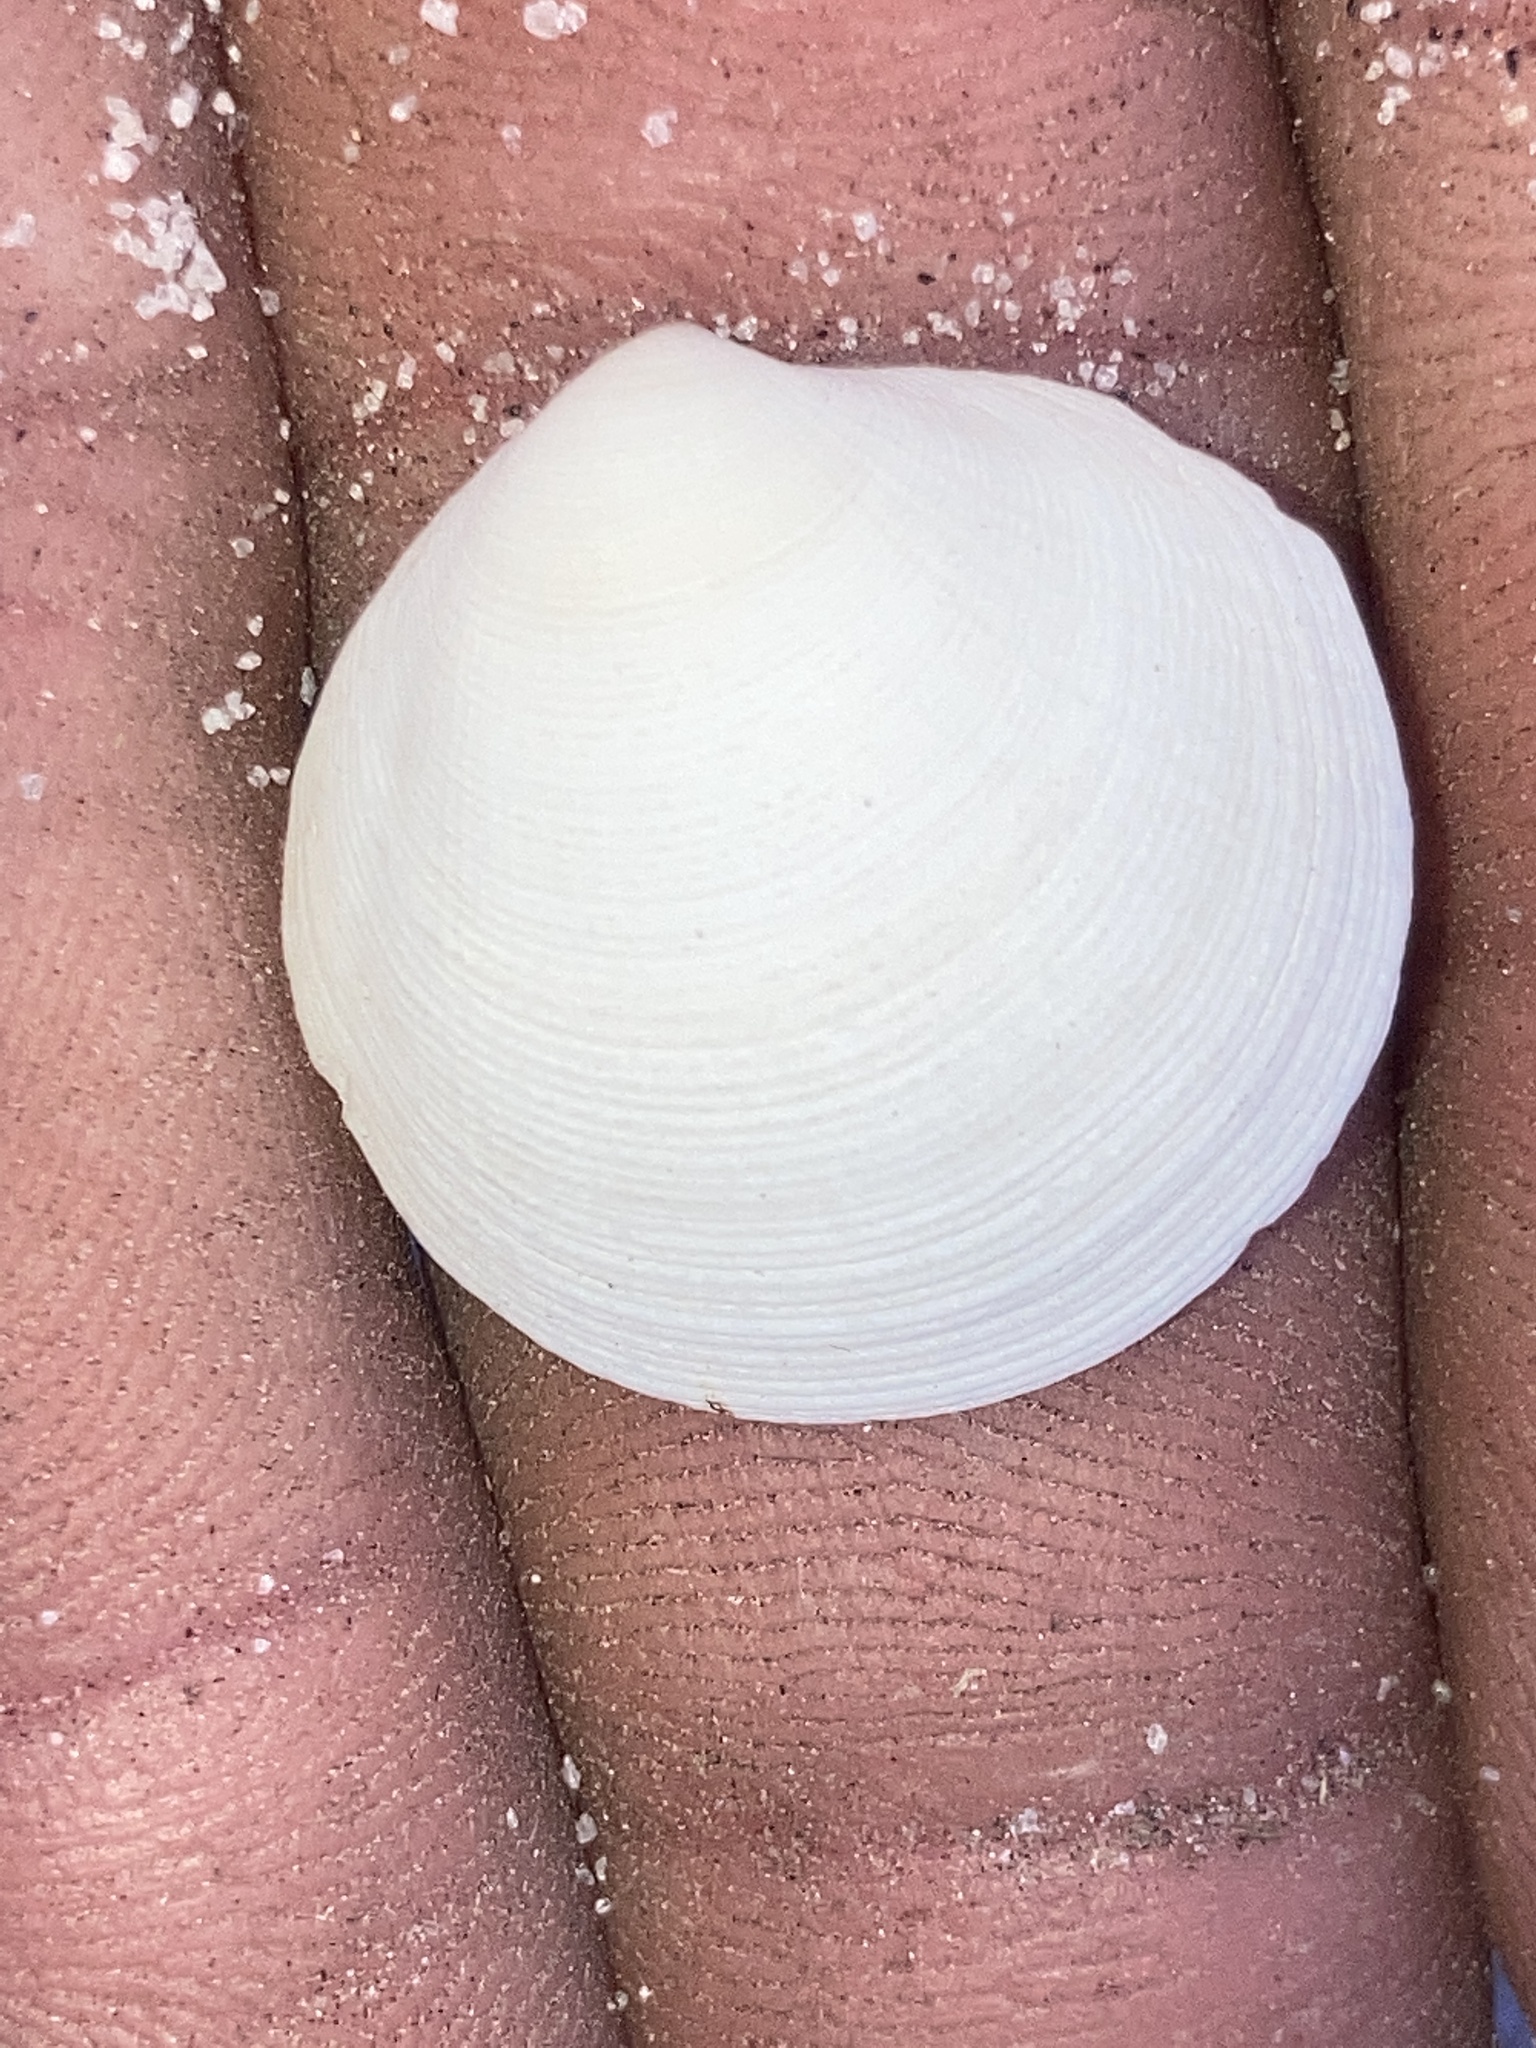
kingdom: Animalia
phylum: Mollusca
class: Bivalvia
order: Lucinida
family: Lucinidae
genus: Callucina
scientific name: Callucina keenae
